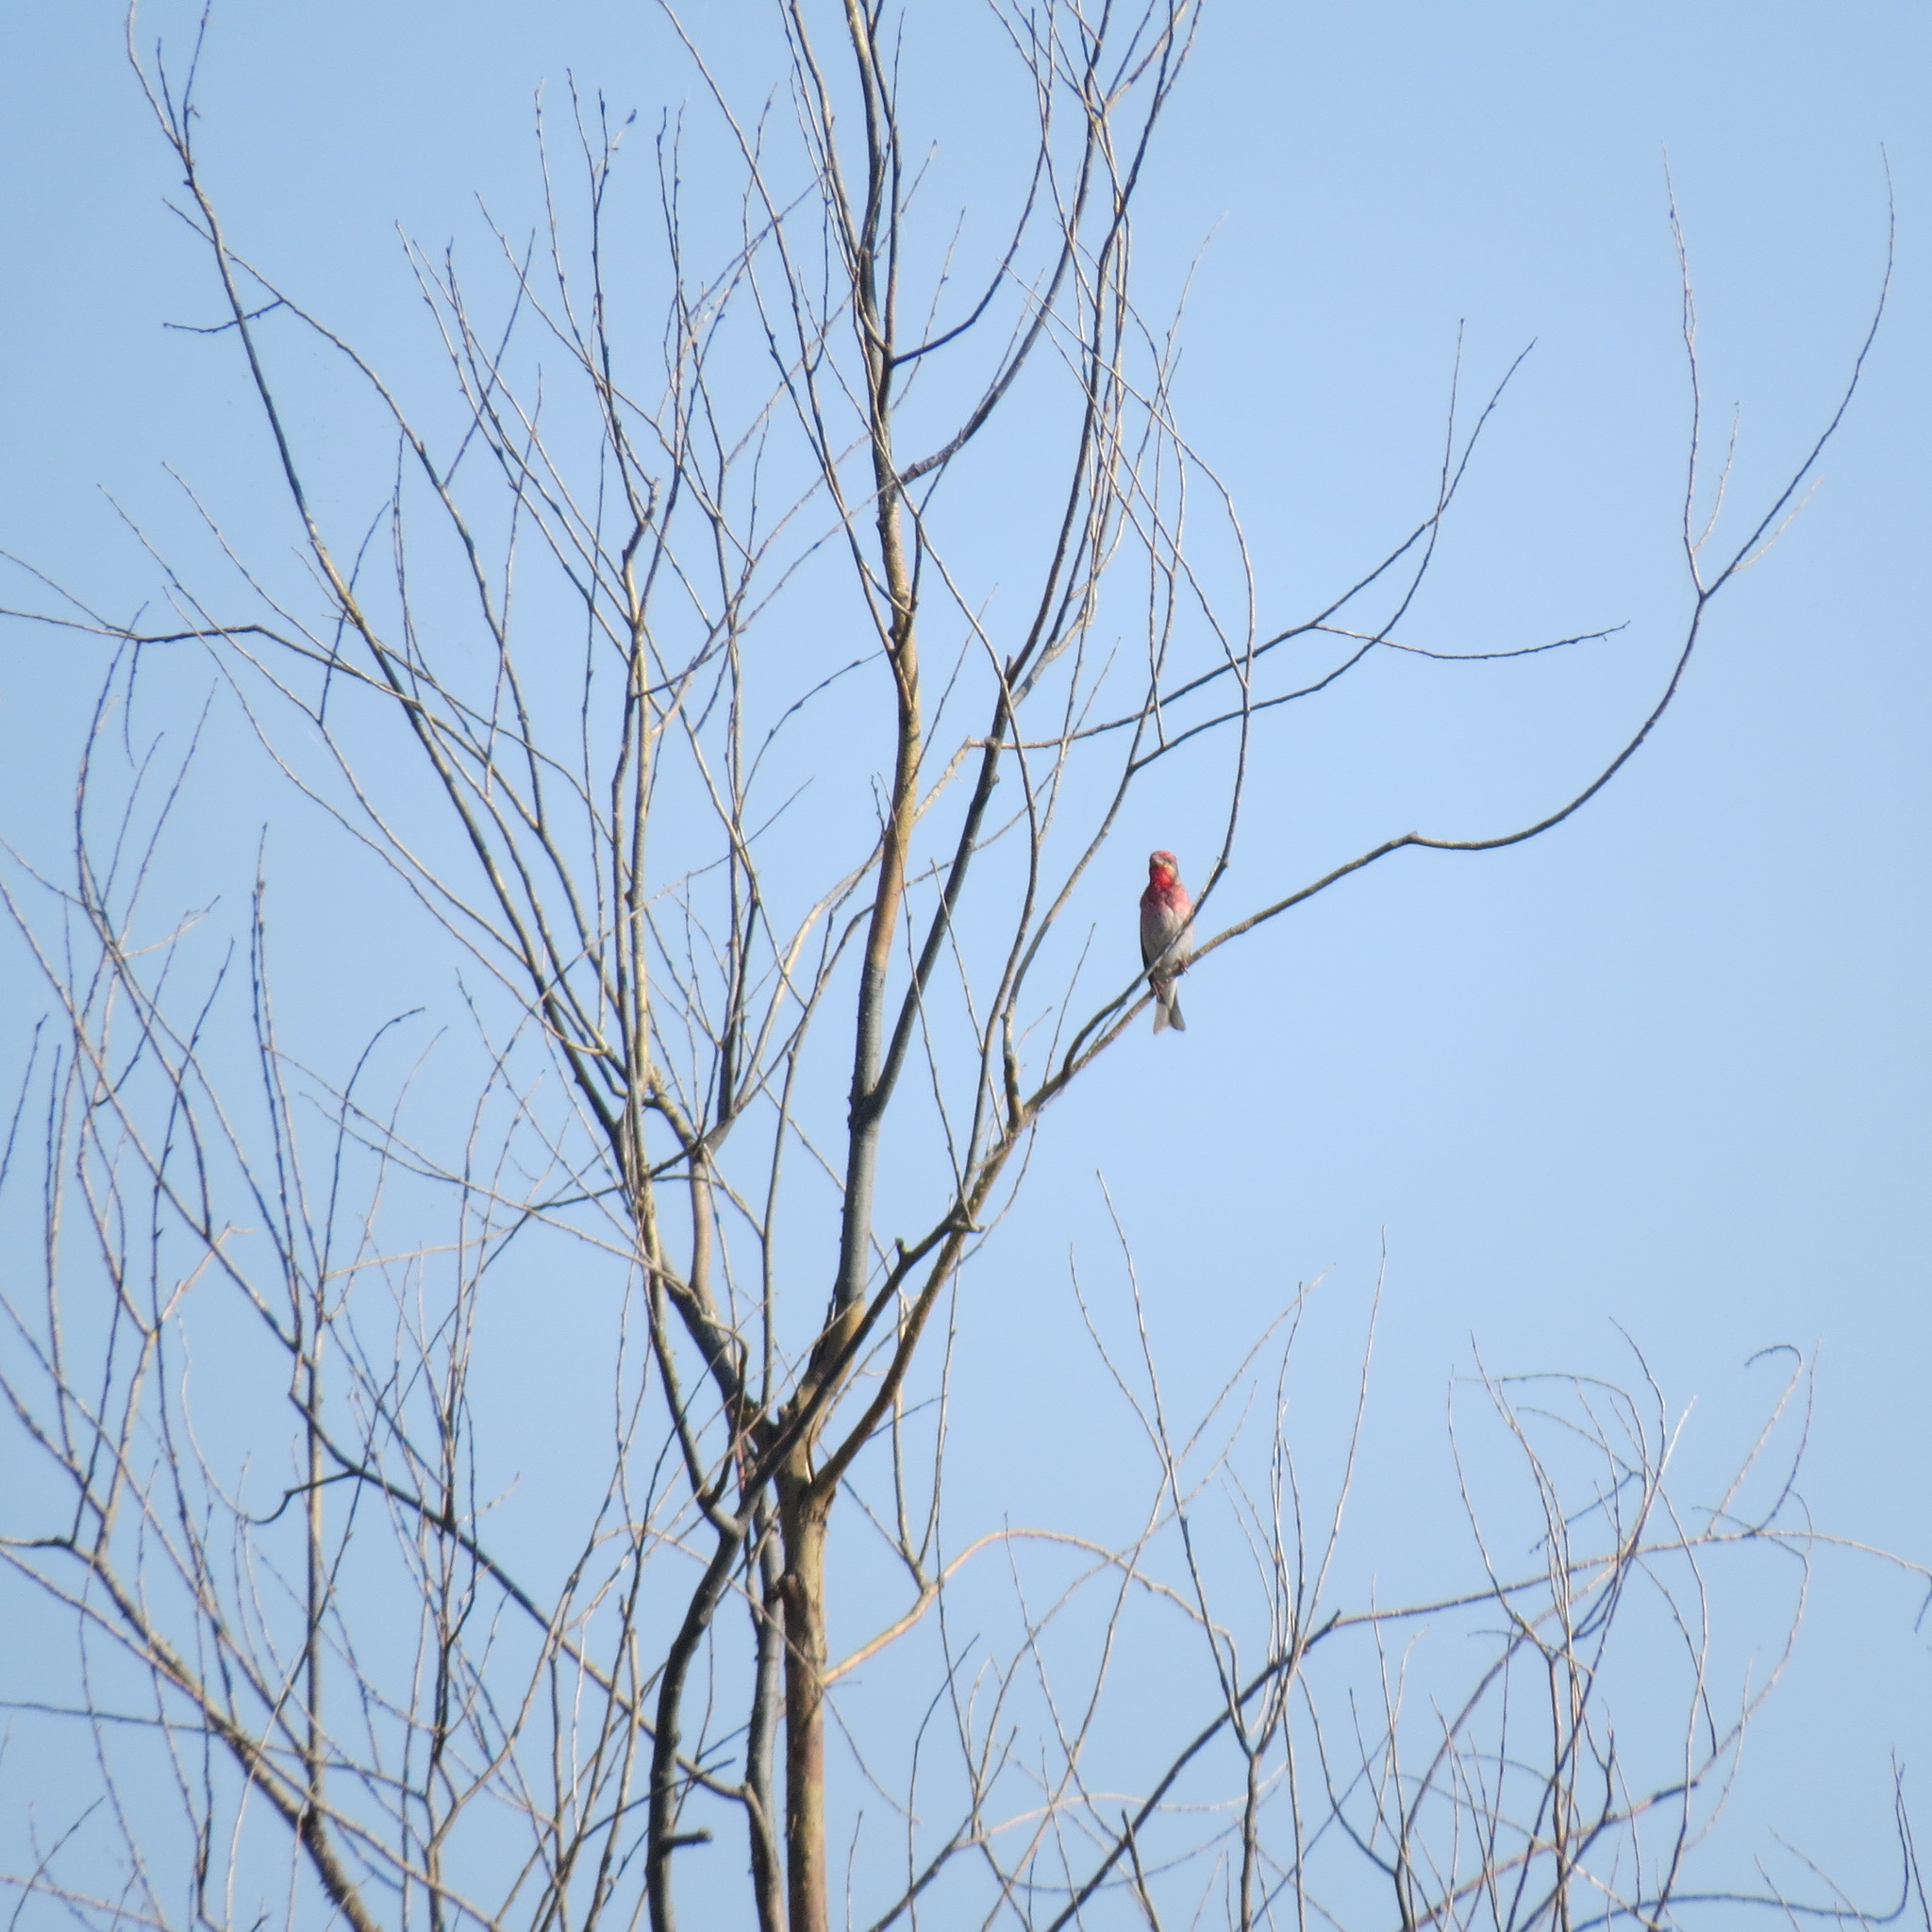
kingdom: Animalia
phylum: Chordata
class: Aves
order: Passeriformes
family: Fringillidae
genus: Carpodacus
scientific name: Carpodacus erythrinus
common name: Common rosefinch
